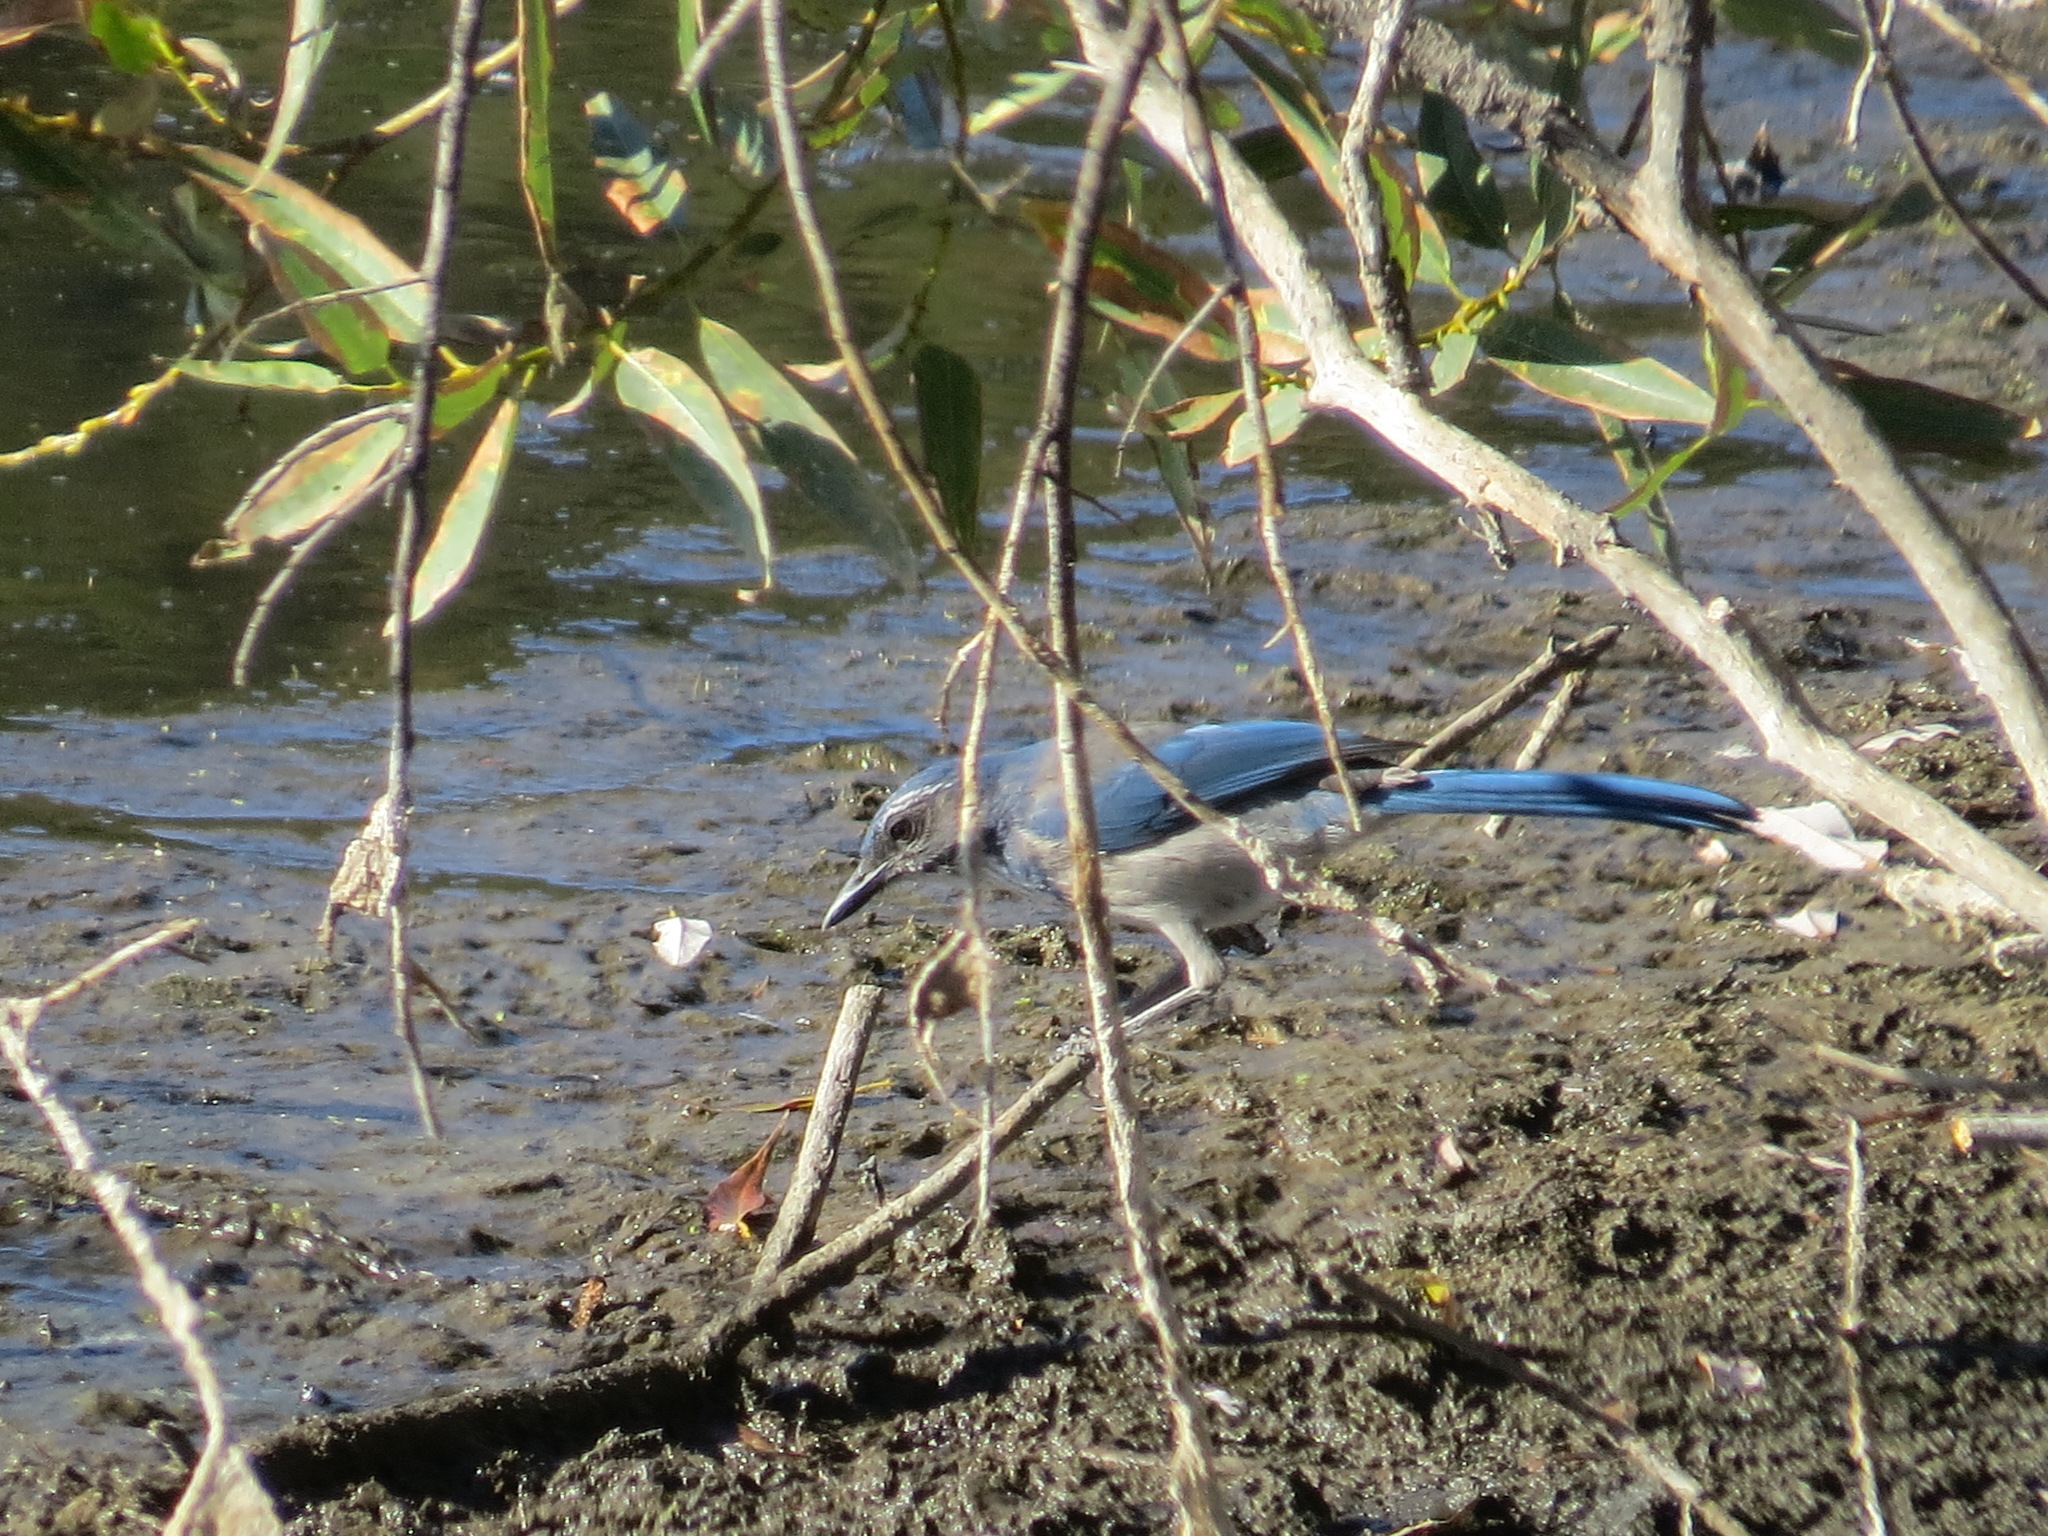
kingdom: Animalia
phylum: Chordata
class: Aves
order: Passeriformes
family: Corvidae
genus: Aphelocoma
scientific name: Aphelocoma californica
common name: California scrub-jay
